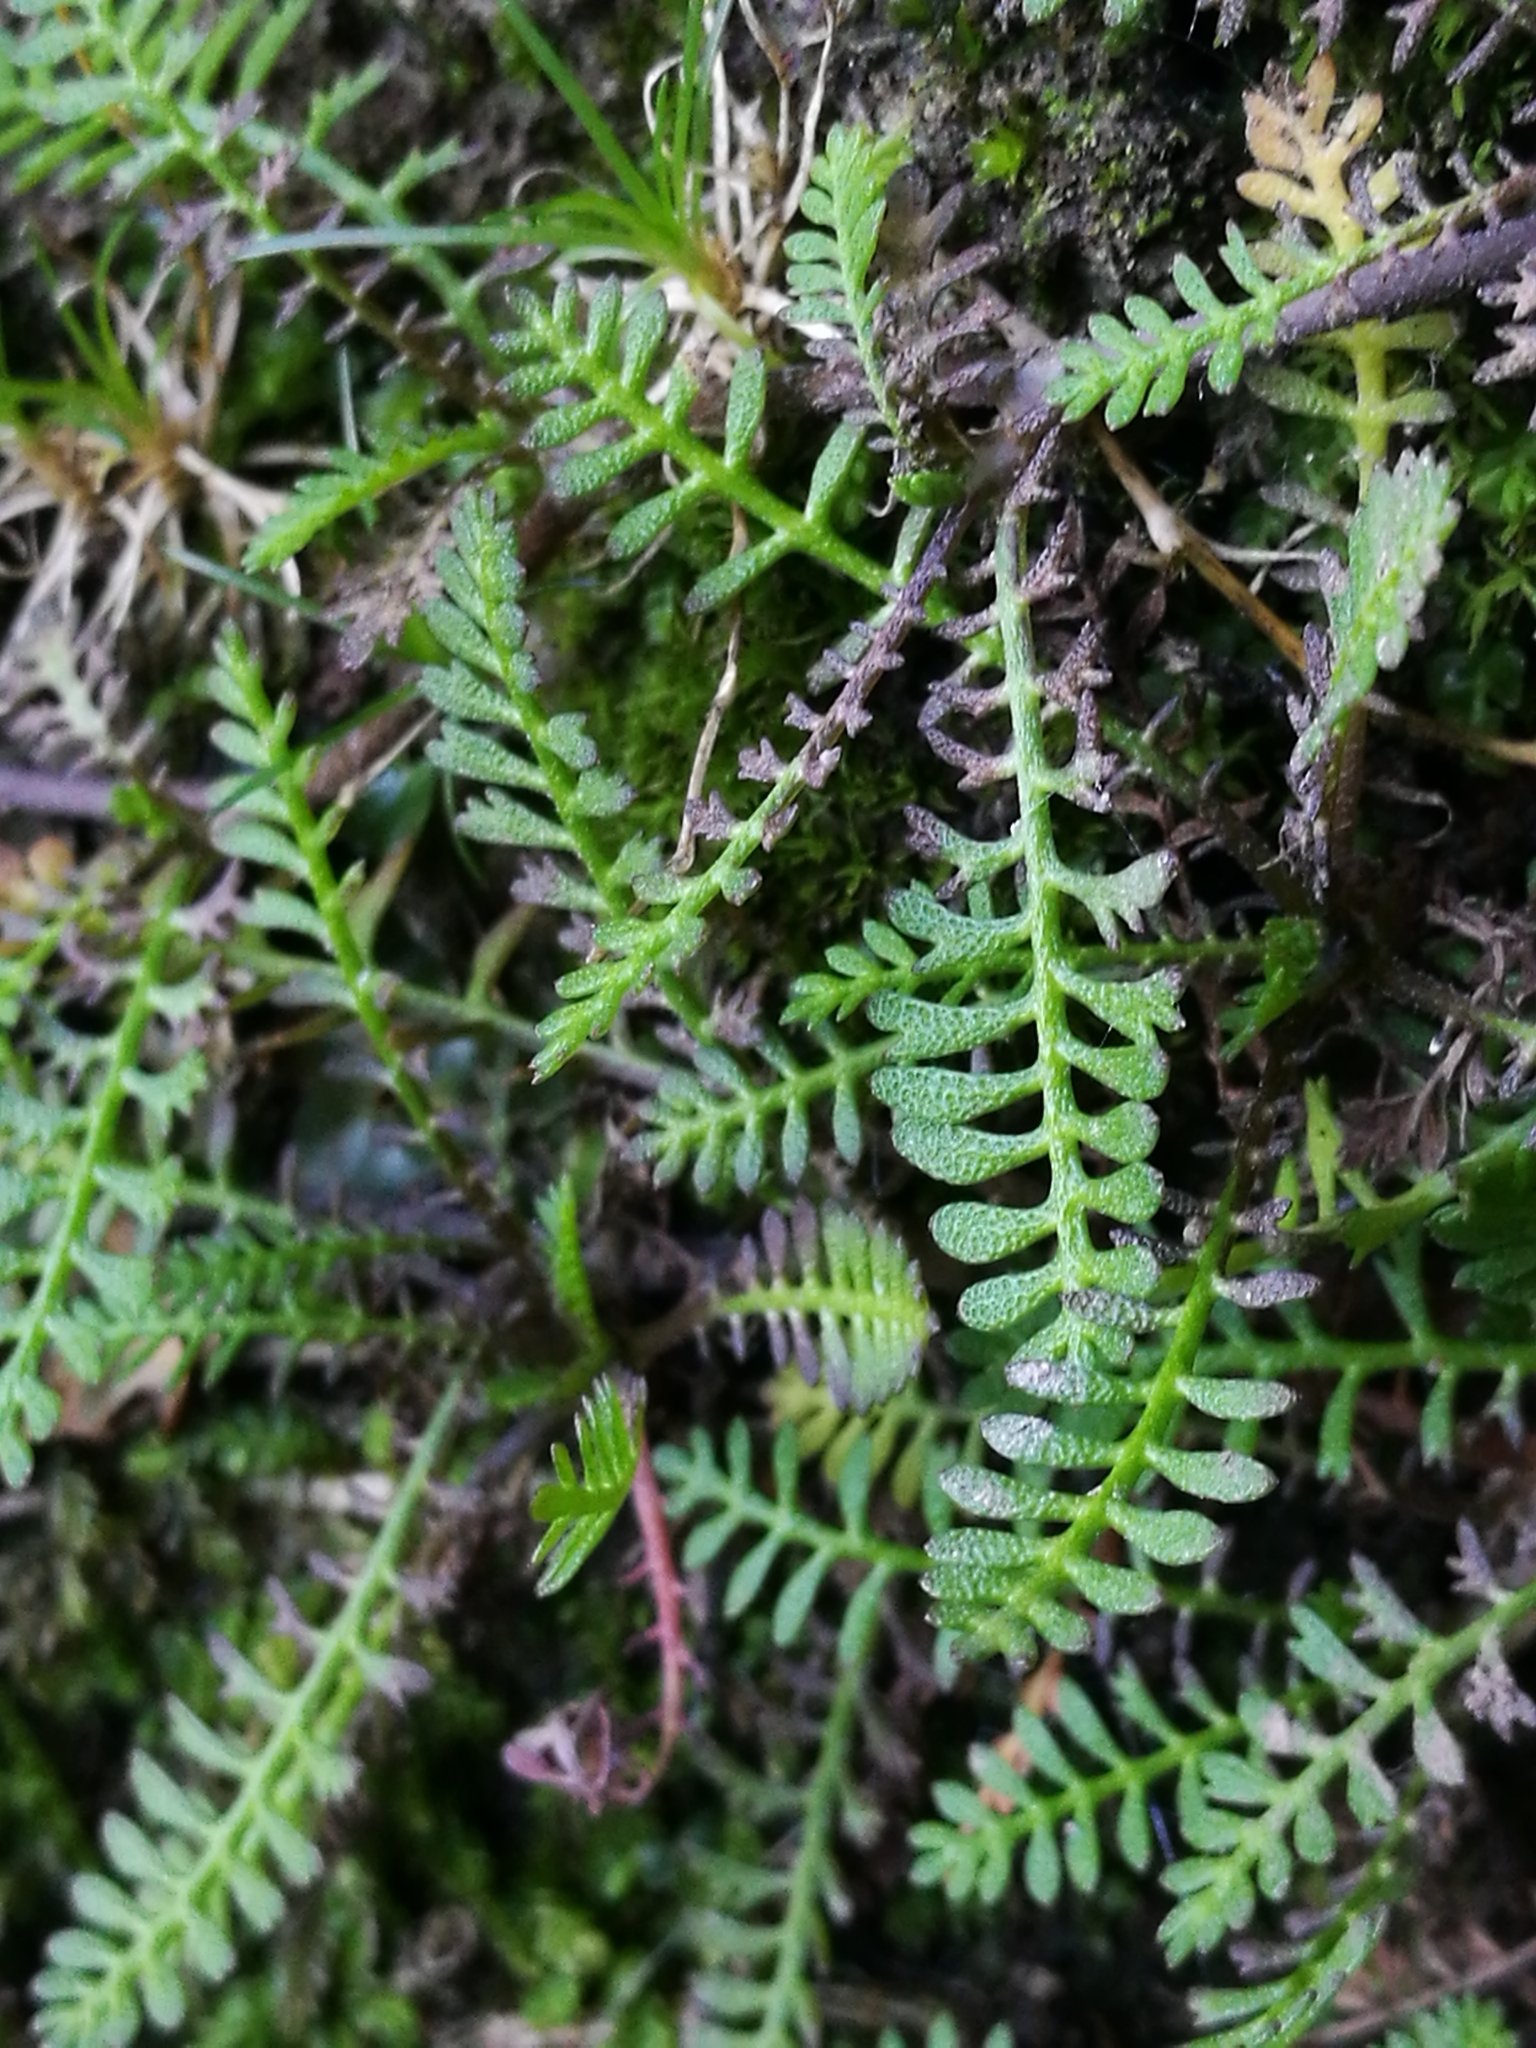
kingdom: Plantae
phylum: Tracheophyta
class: Magnoliopsida
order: Asterales
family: Asteraceae
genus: Leptinella
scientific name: Leptinella minor
